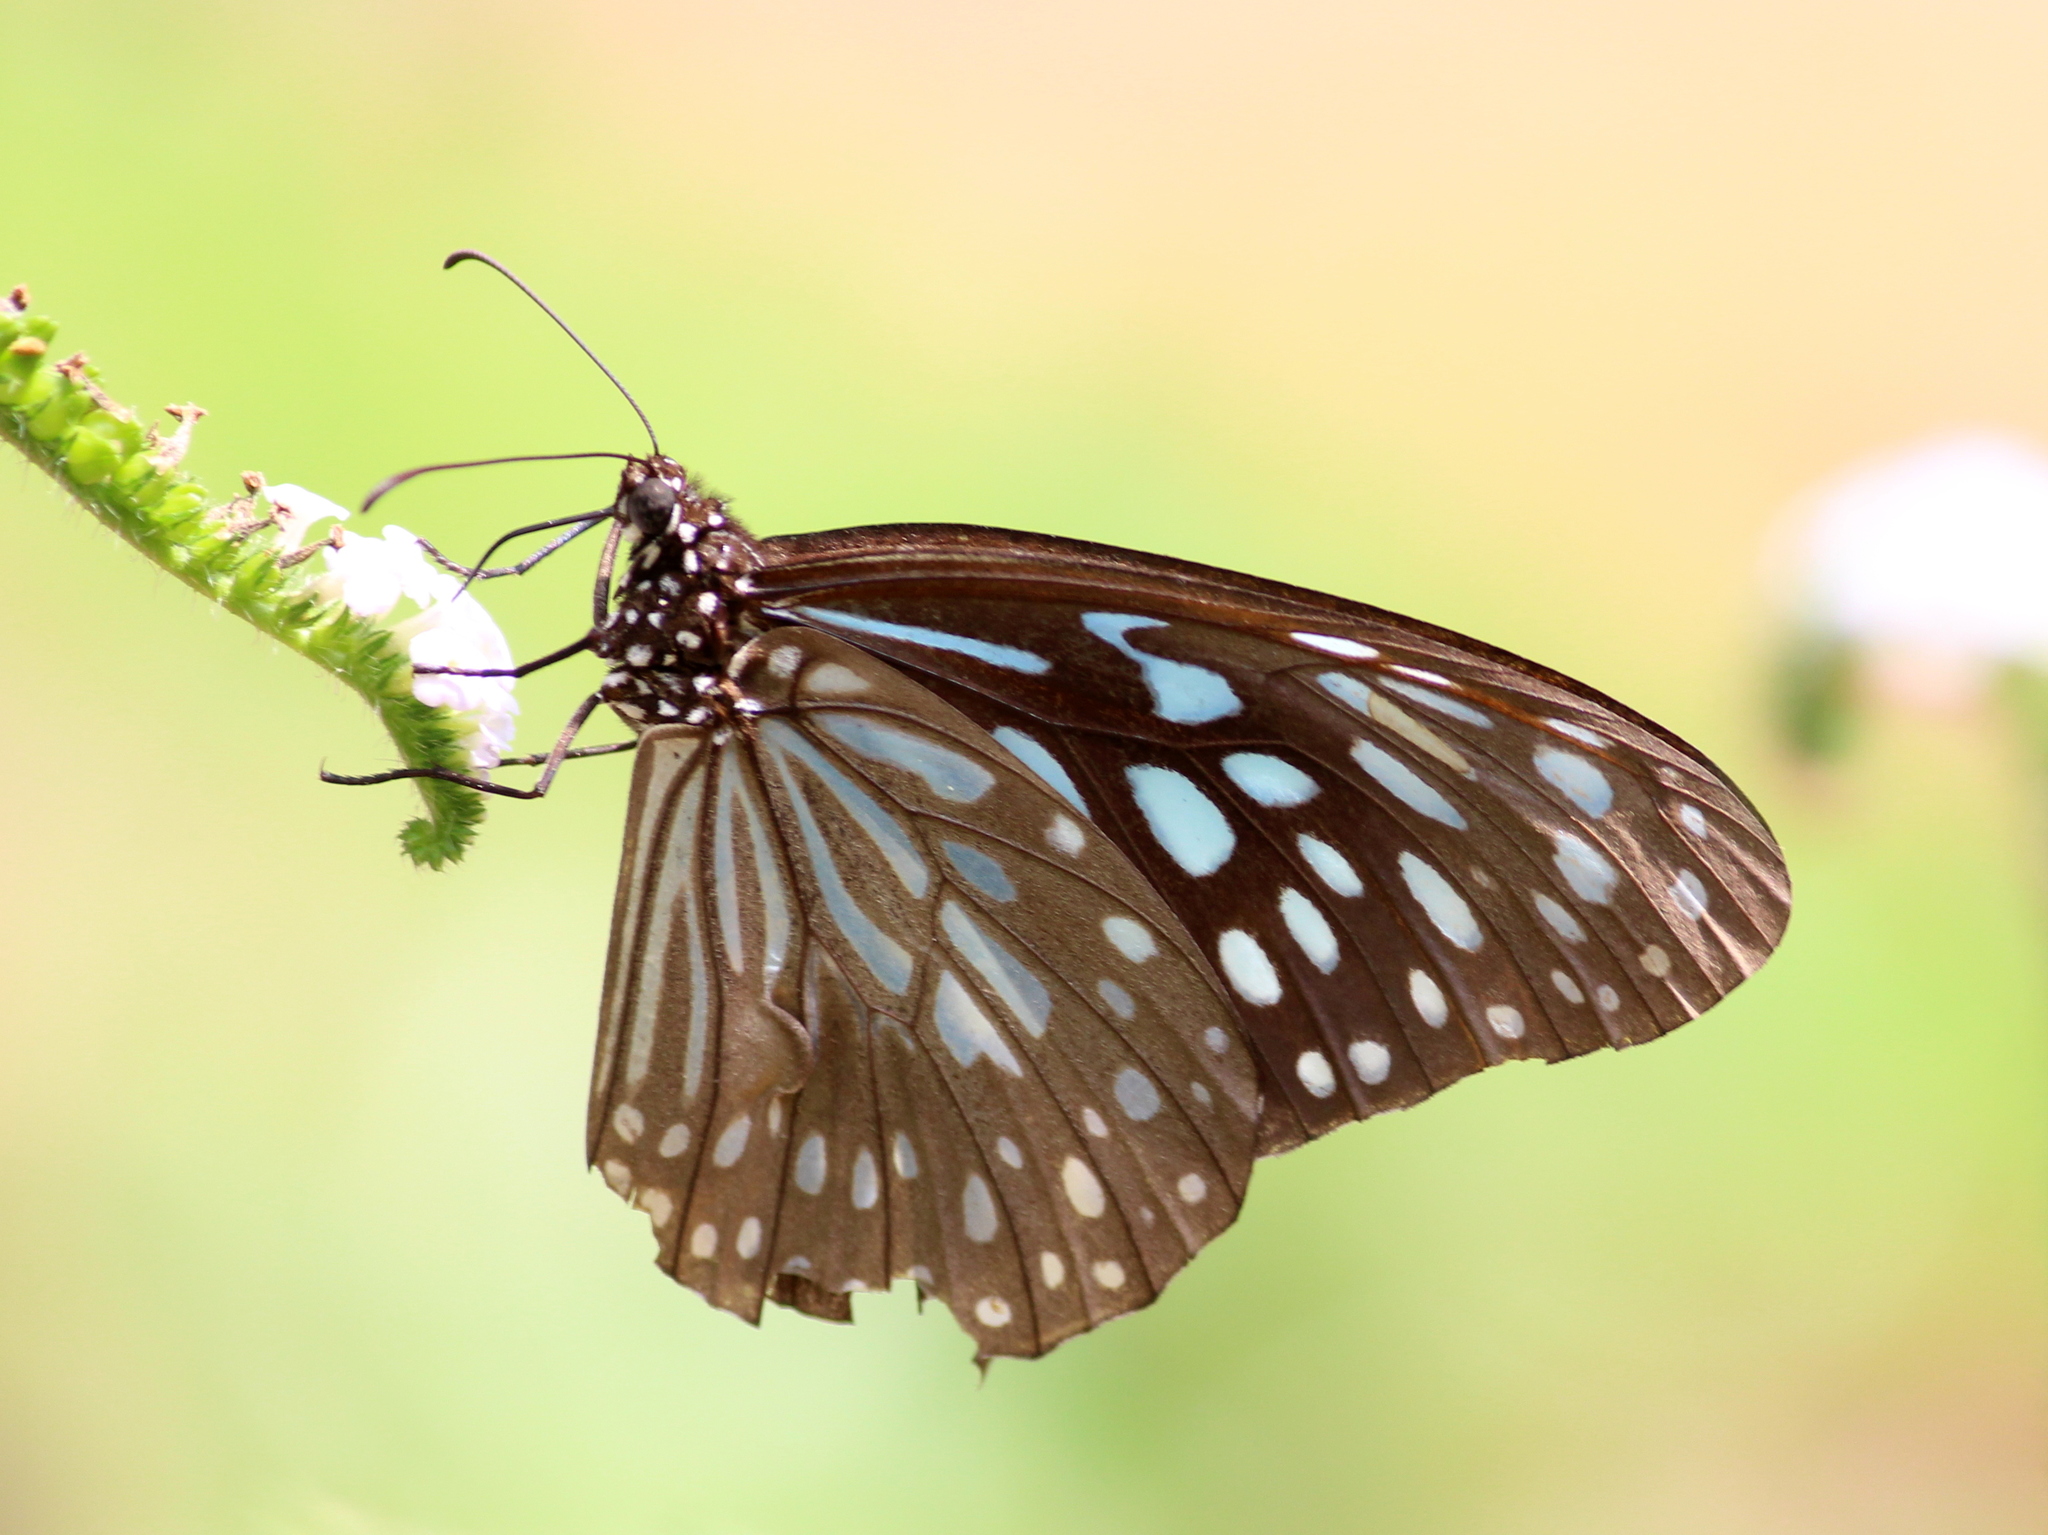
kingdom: Animalia
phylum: Arthropoda
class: Insecta
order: Lepidoptera
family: Nymphalidae
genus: Tirumala
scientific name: Tirumala septentrionis
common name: Dark blue tiger butterfly
